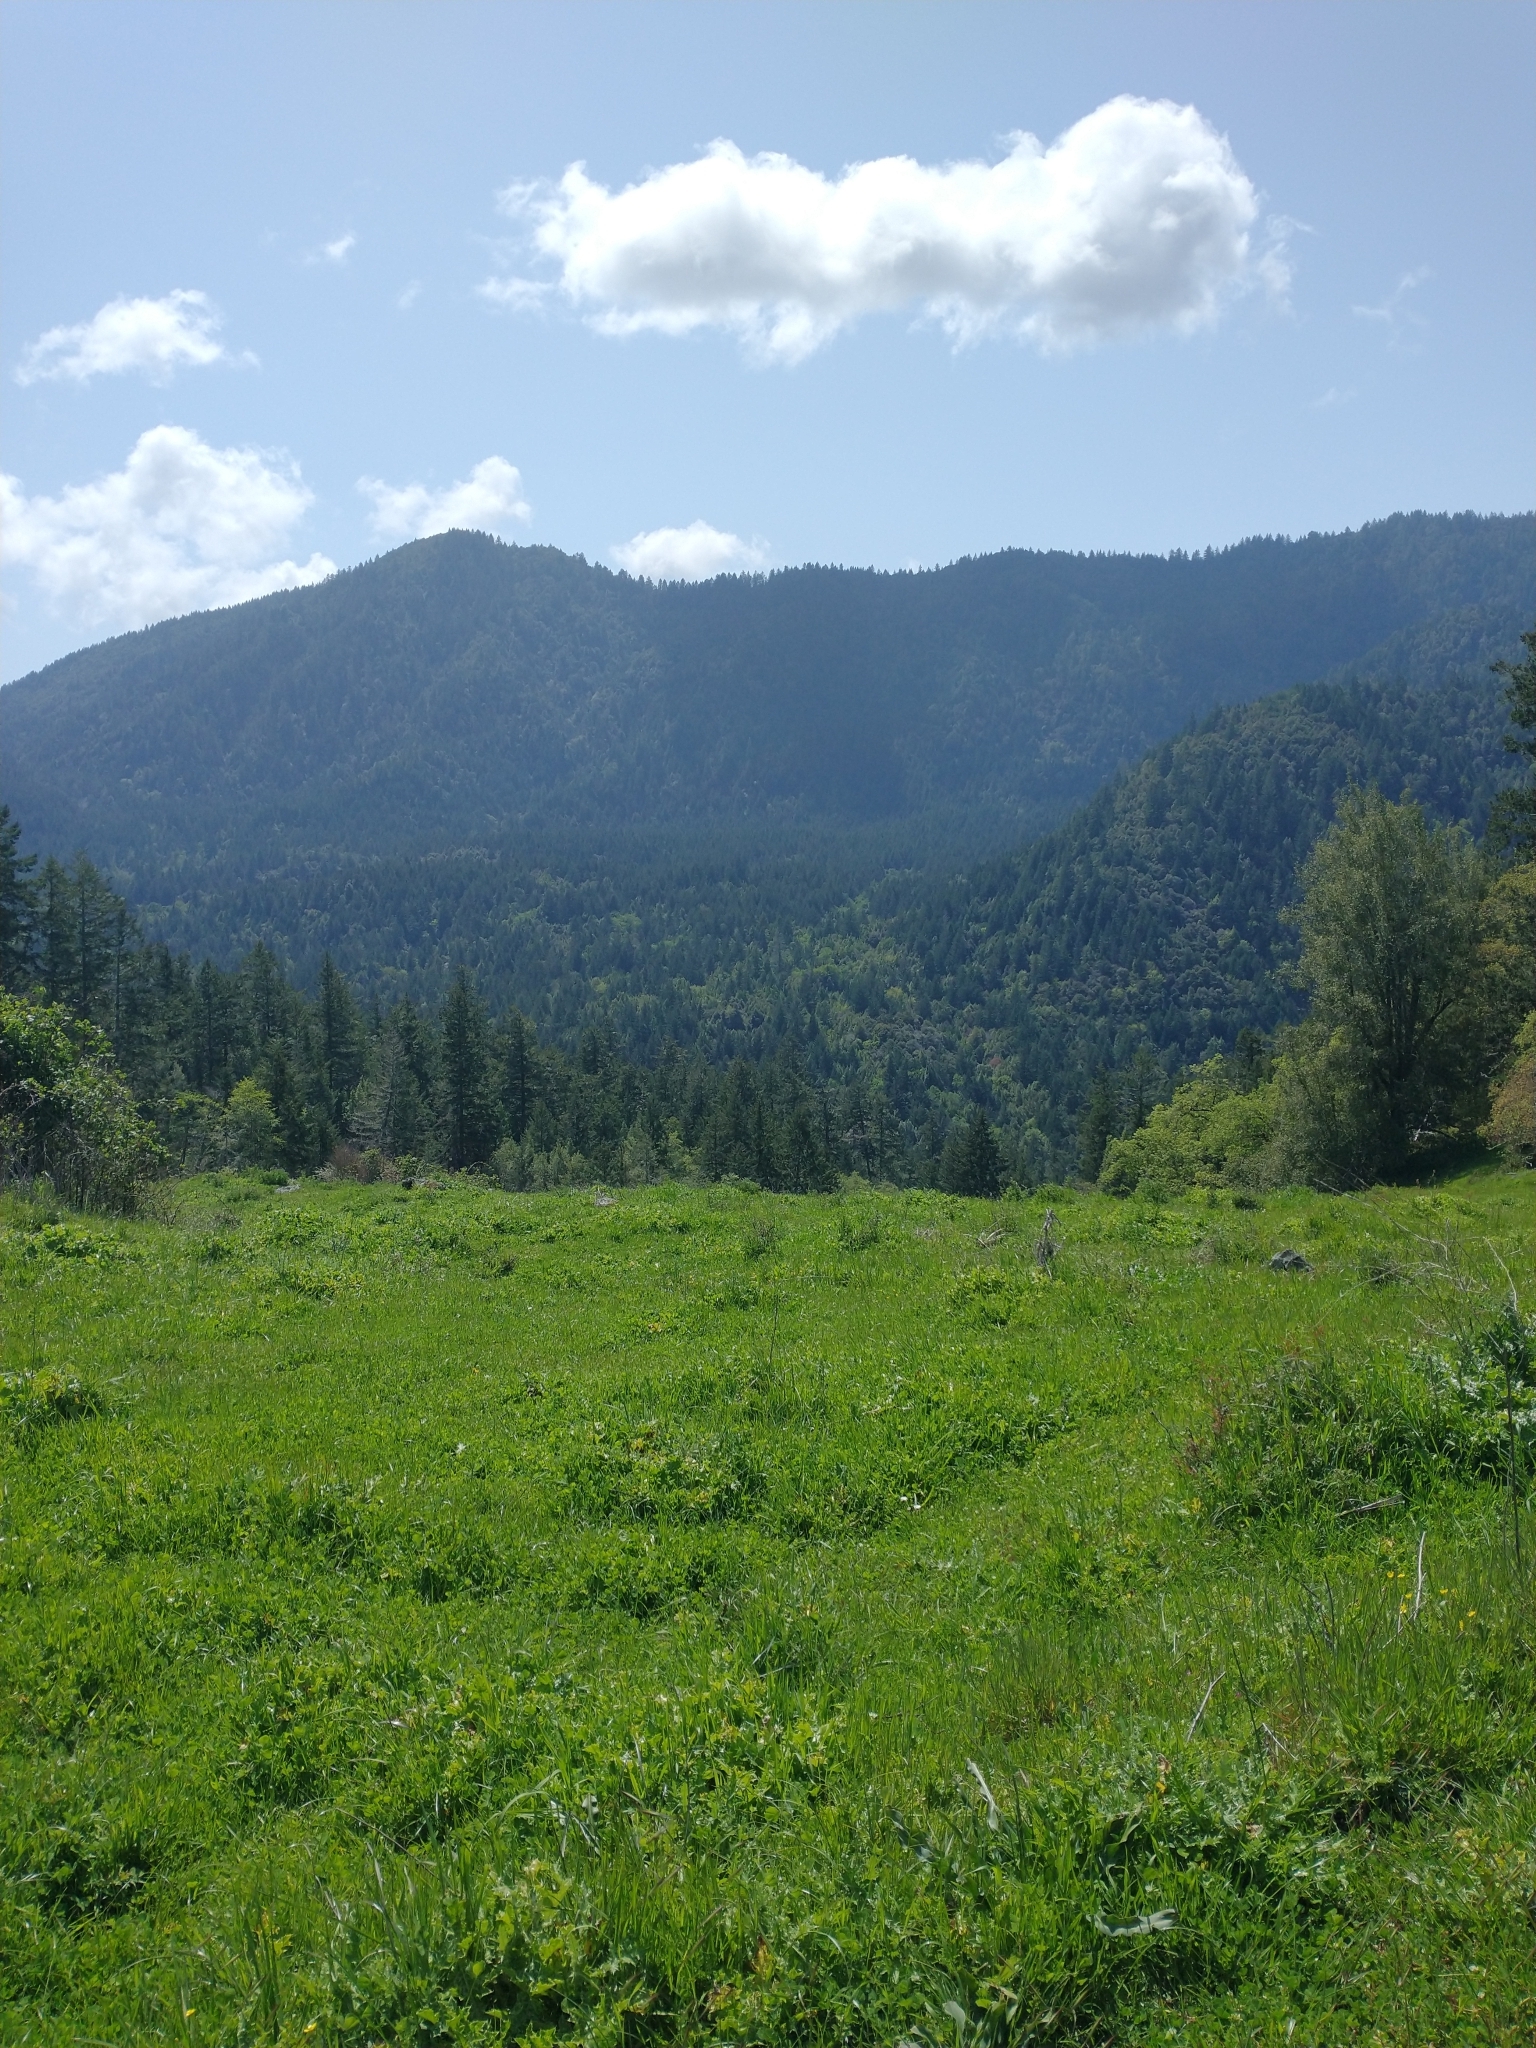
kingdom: Plantae
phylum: Tracheophyta
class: Magnoliopsida
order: Asterales
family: Asteraceae
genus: Silybum
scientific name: Silybum marianum
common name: Milk thistle
